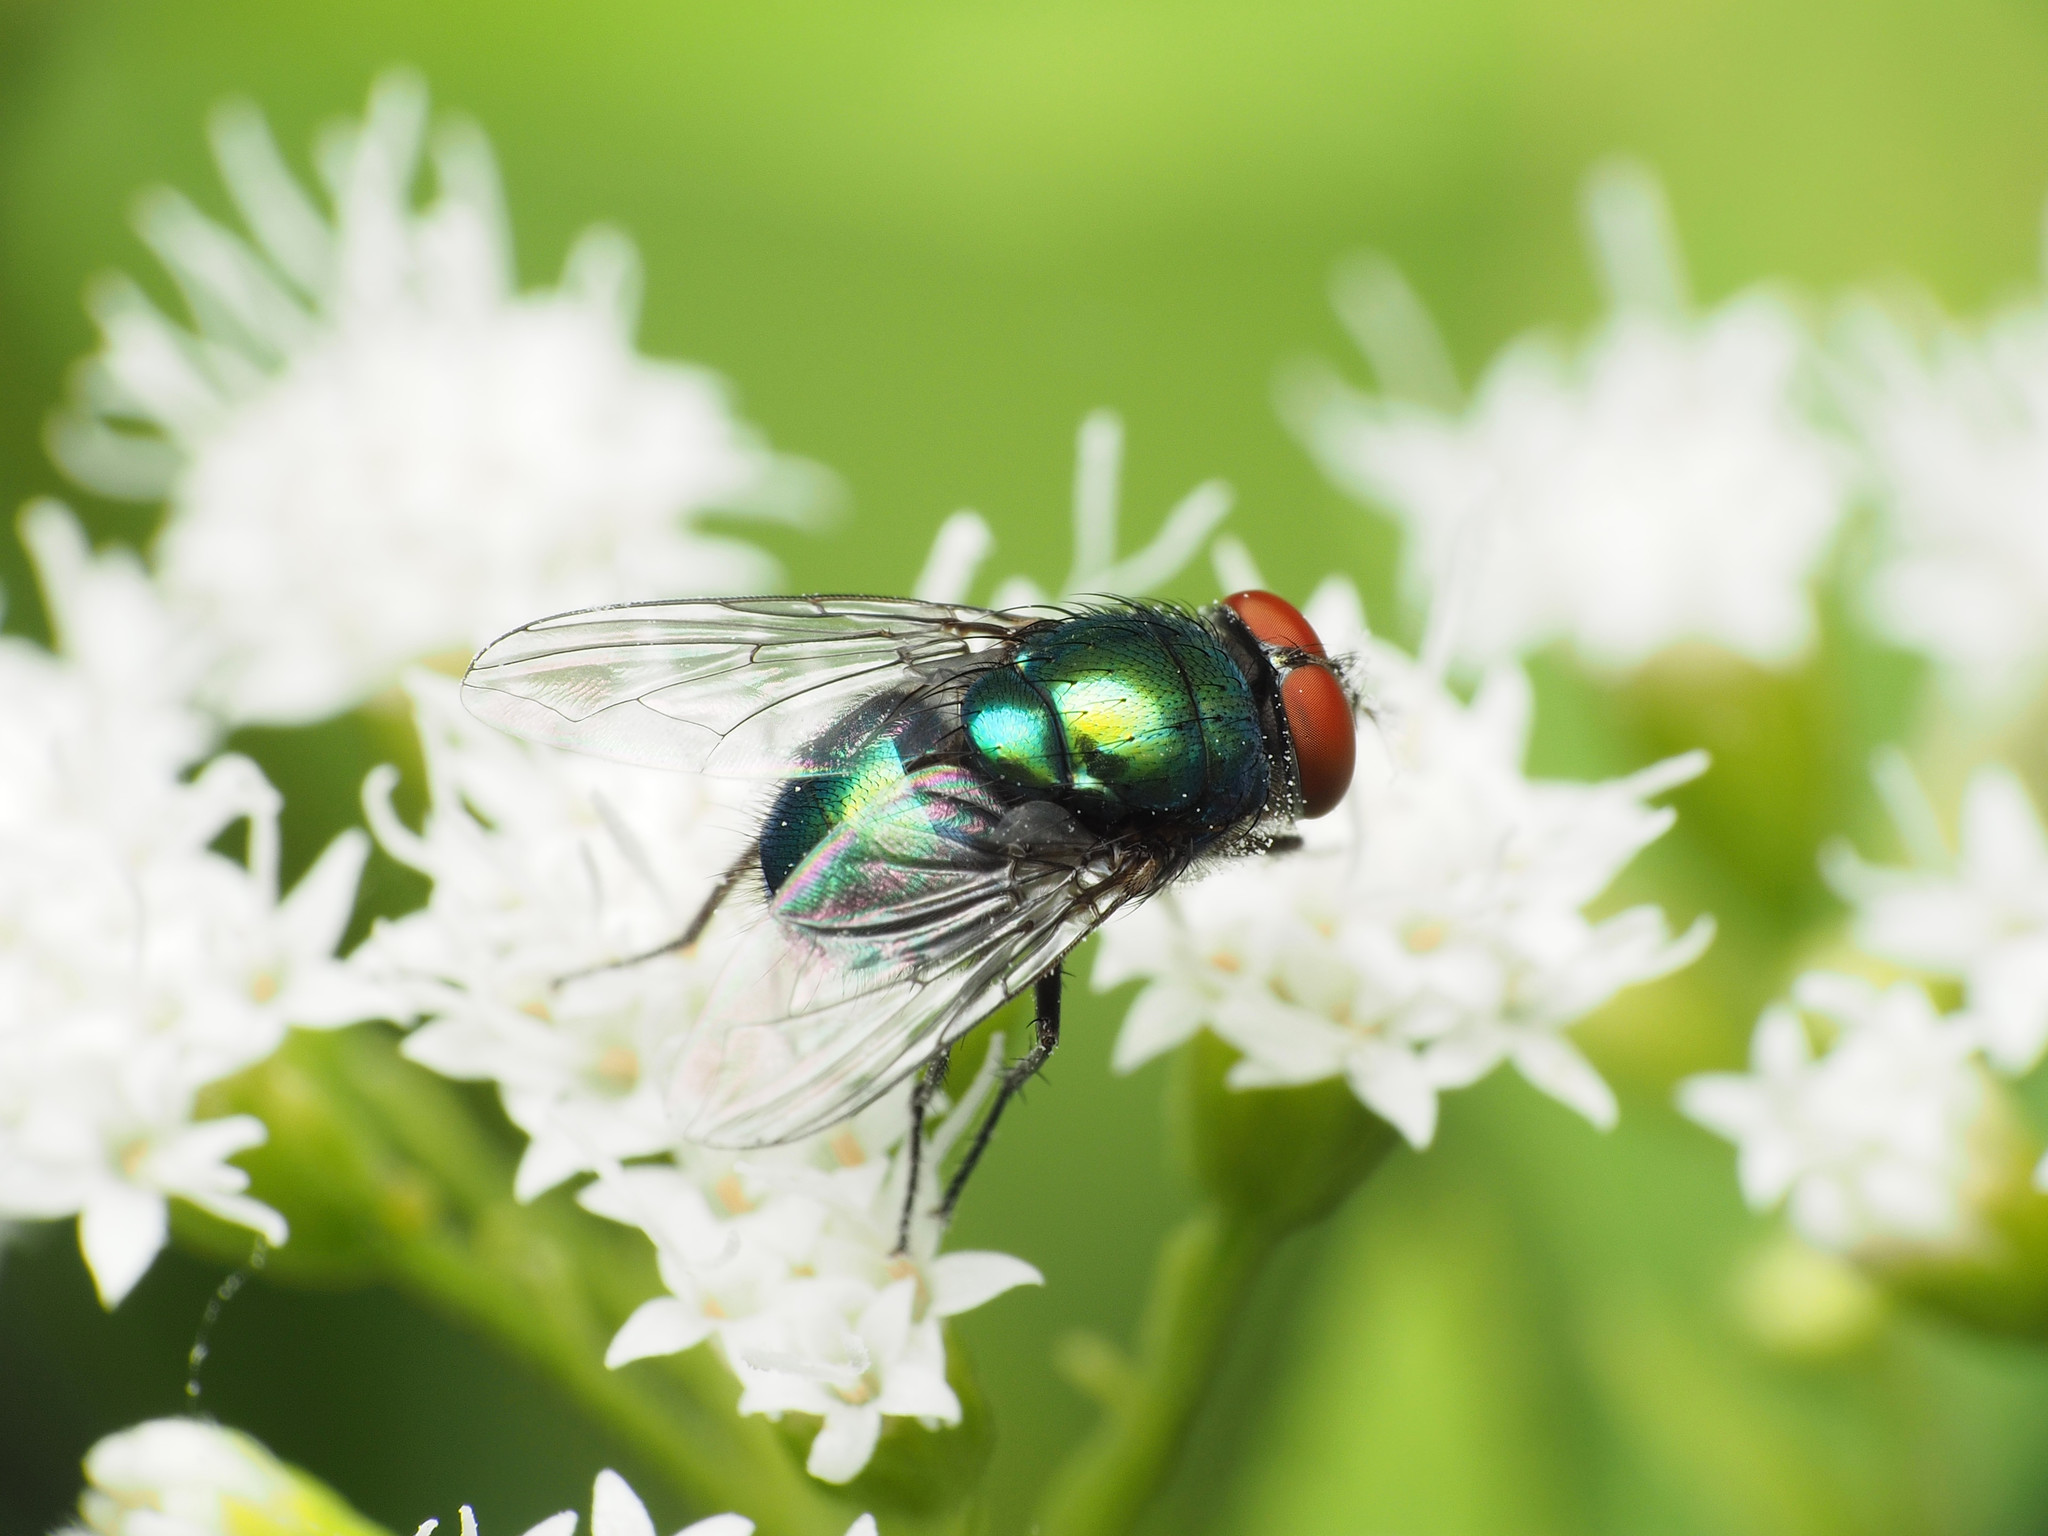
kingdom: Animalia
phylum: Arthropoda
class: Insecta
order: Diptera
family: Calliphoridae
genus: Lucilia
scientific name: Lucilia illustris
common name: Illustrious greenbottle
